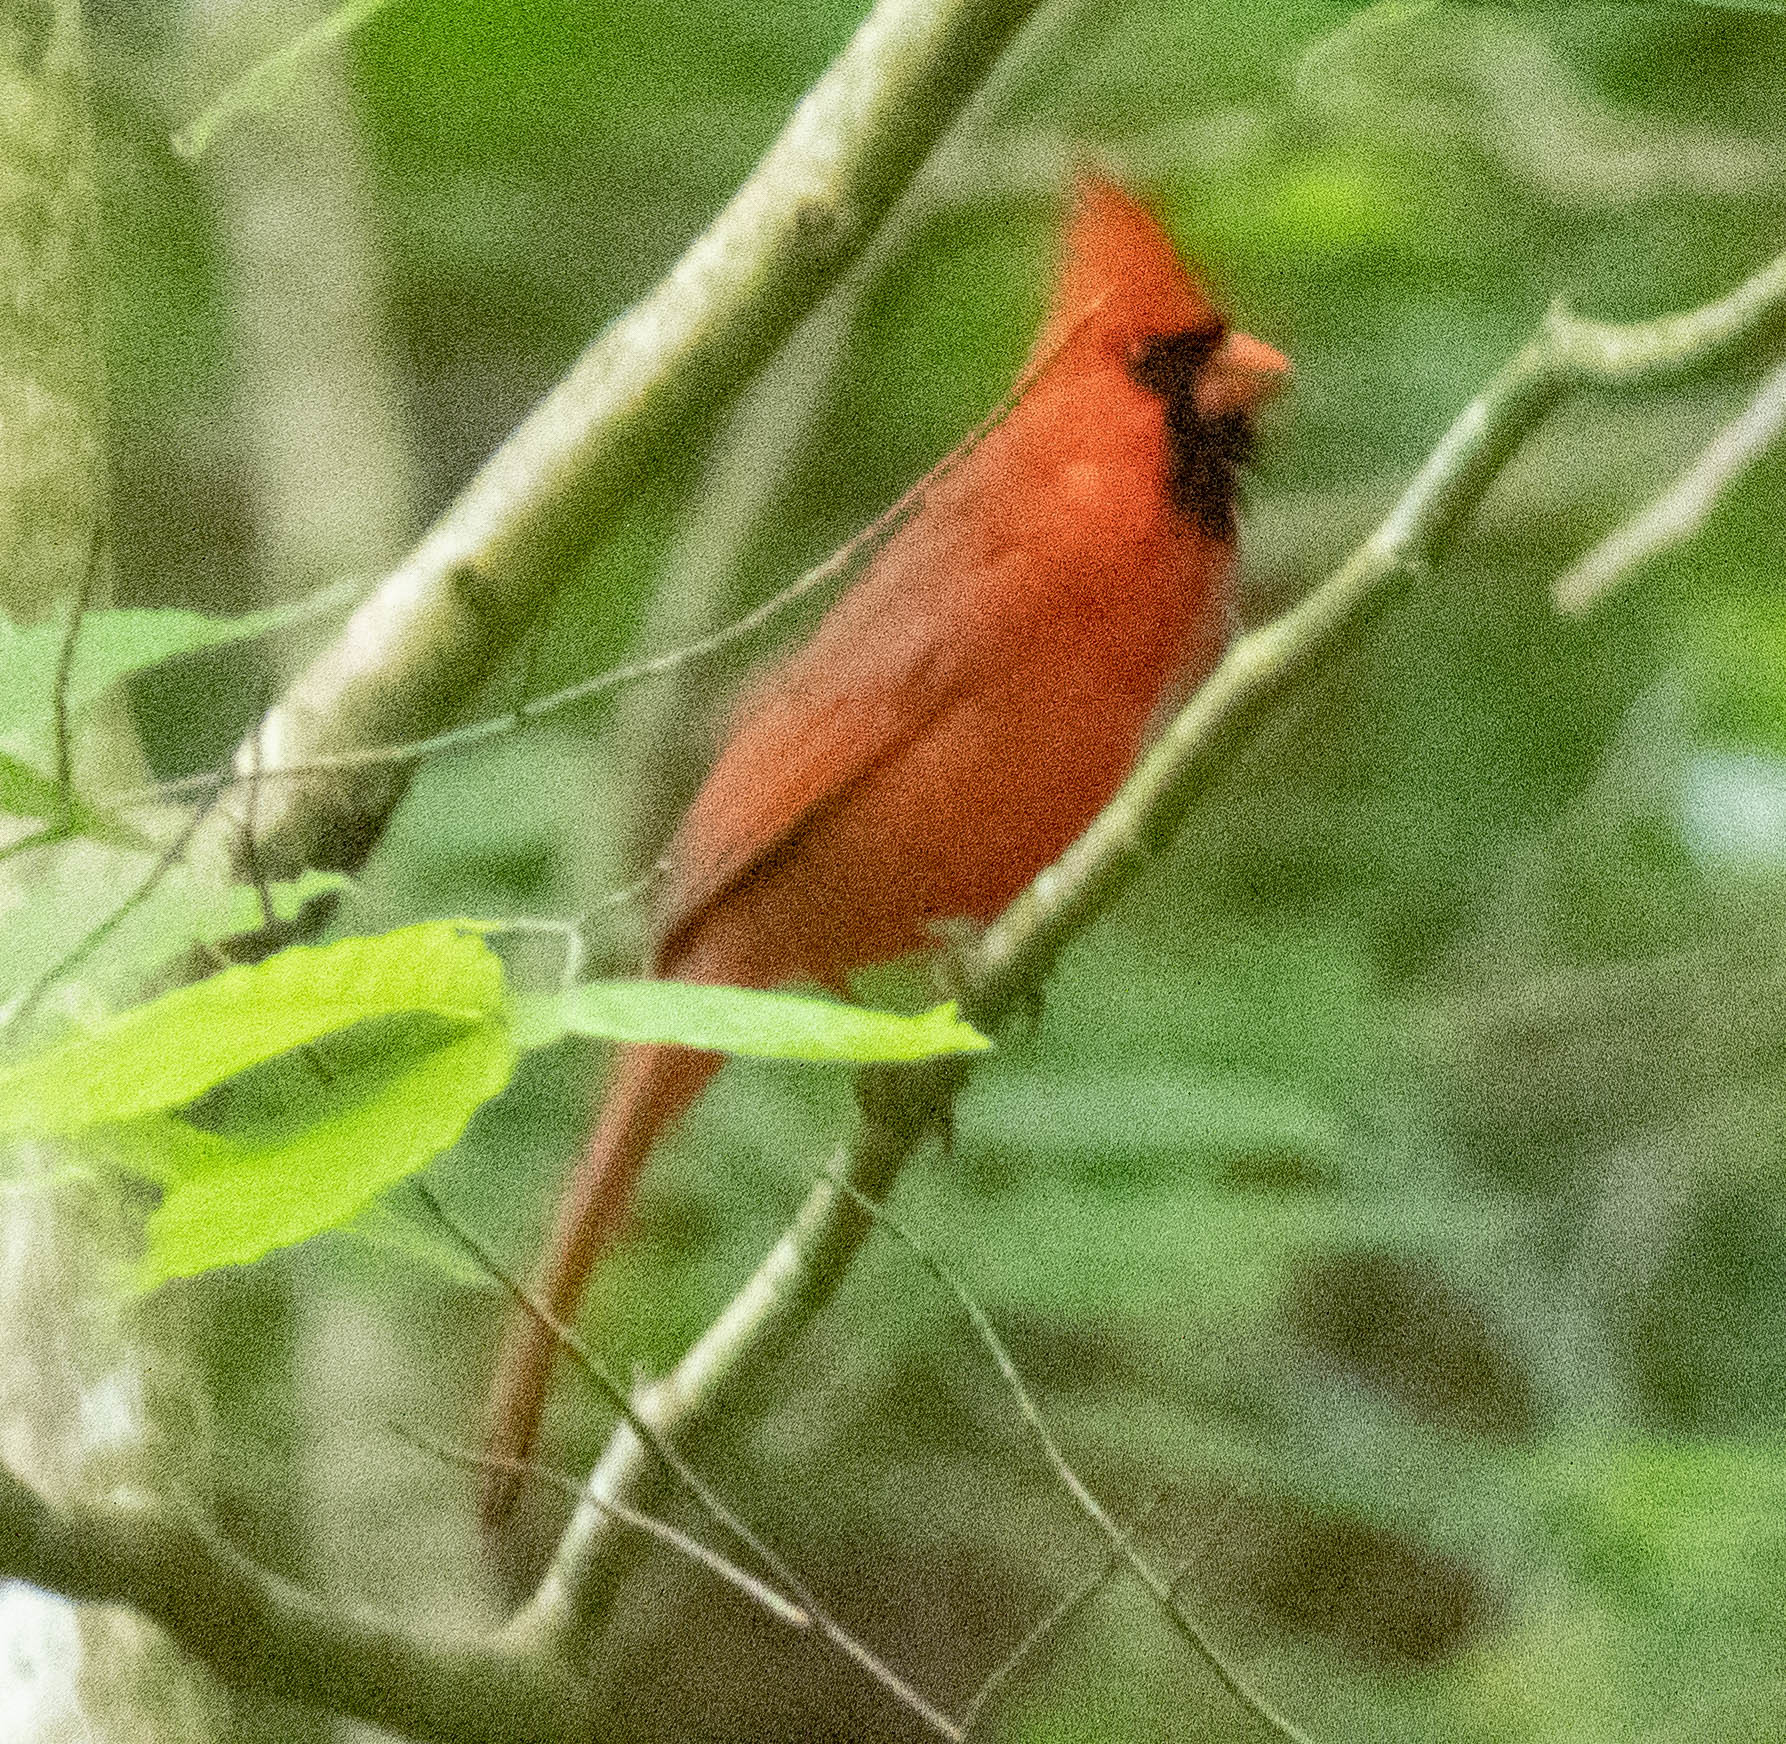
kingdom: Animalia
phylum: Chordata
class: Aves
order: Passeriformes
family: Cardinalidae
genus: Cardinalis
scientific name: Cardinalis cardinalis
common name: Northern cardinal
